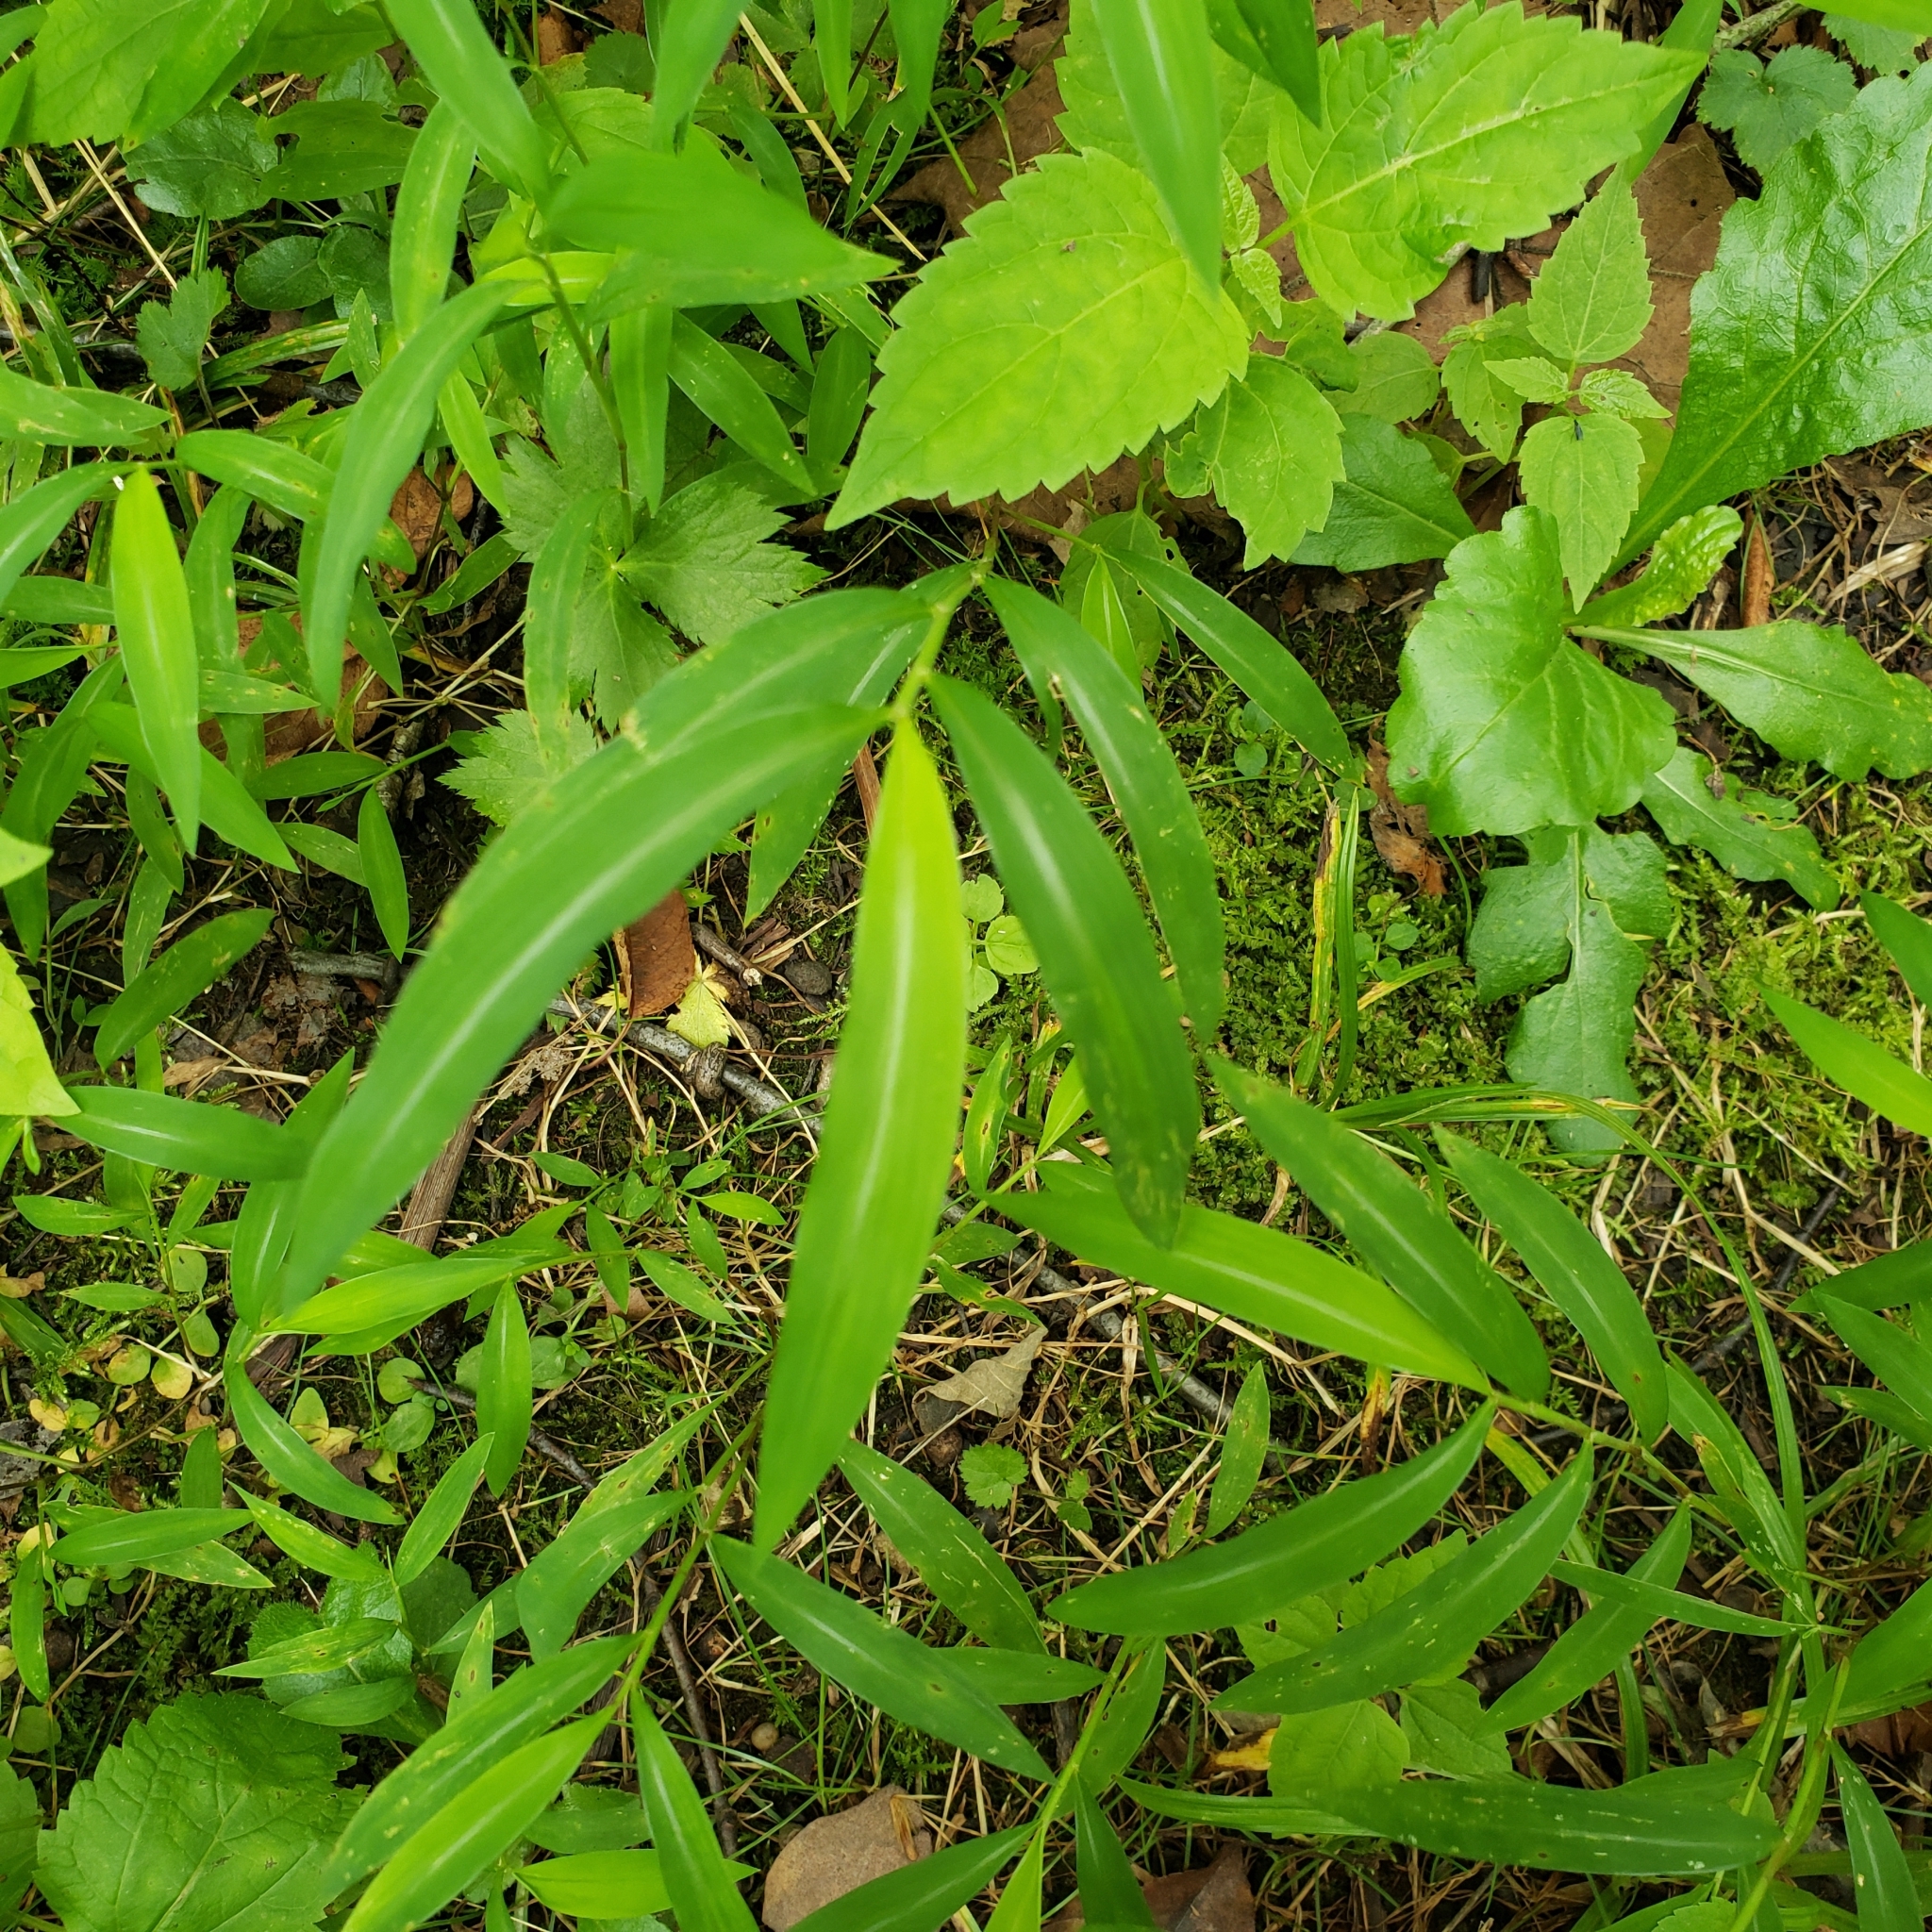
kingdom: Plantae
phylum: Tracheophyta
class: Liliopsida
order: Poales
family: Poaceae
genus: Microstegium
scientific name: Microstegium vimineum
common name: Japanese stiltgrass
